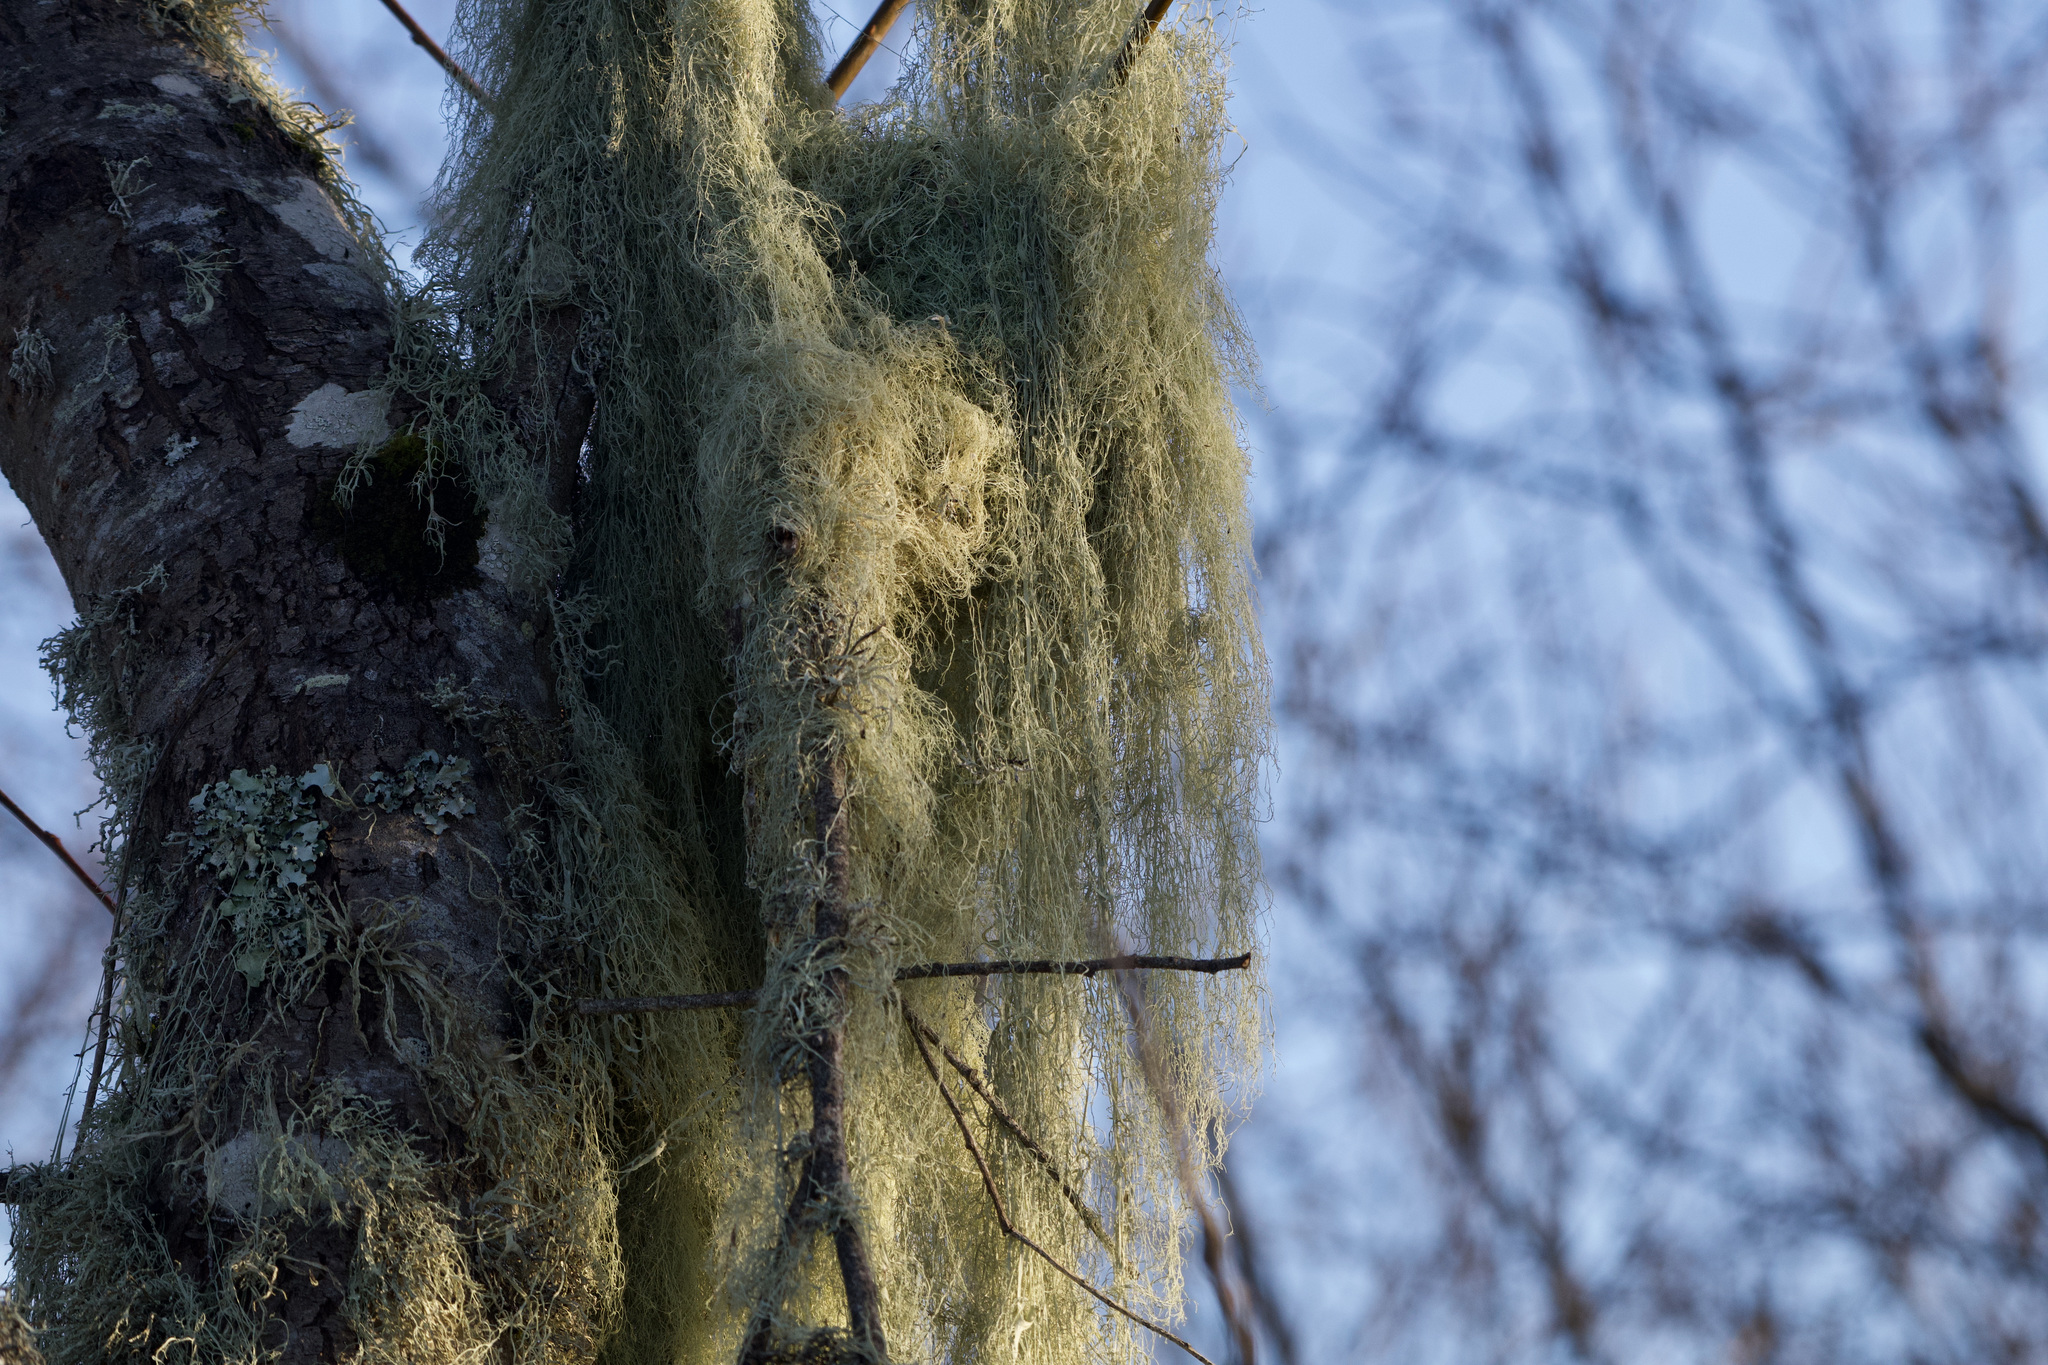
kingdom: Fungi
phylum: Ascomycota
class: Lecanoromycetes
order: Lecanorales
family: Ramalinaceae
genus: Ramalina
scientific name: Ramalina menziesii
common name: Lace lichen
